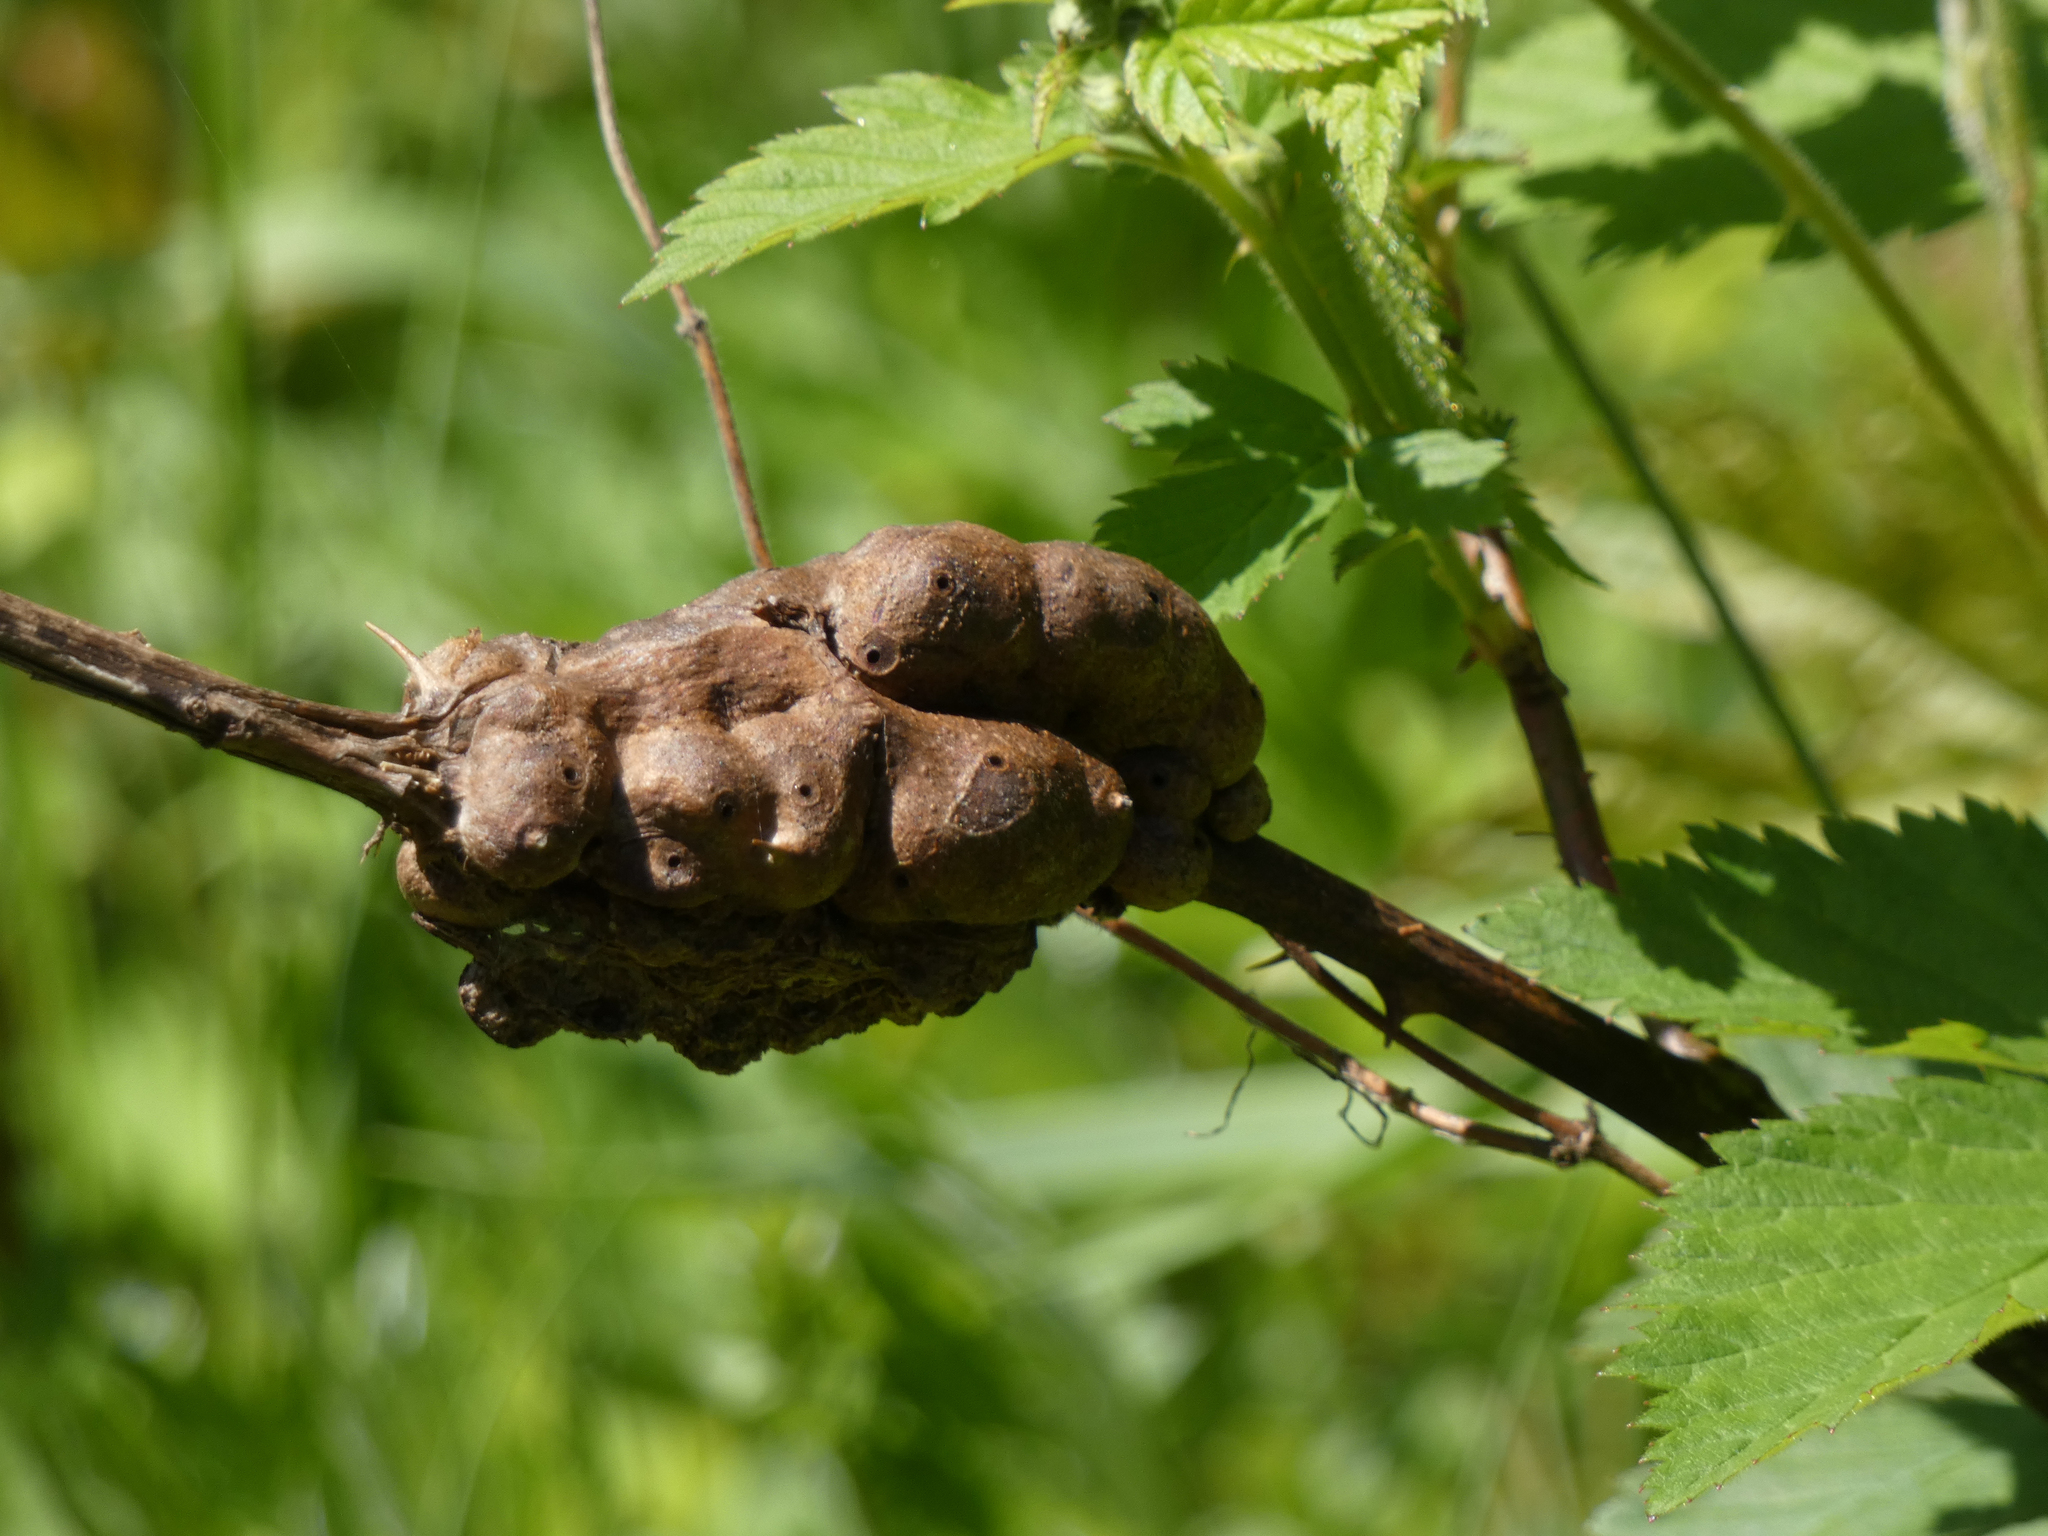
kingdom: Animalia
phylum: Arthropoda
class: Insecta
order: Hymenoptera
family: Cynipidae
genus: Diastrophus
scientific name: Diastrophus
